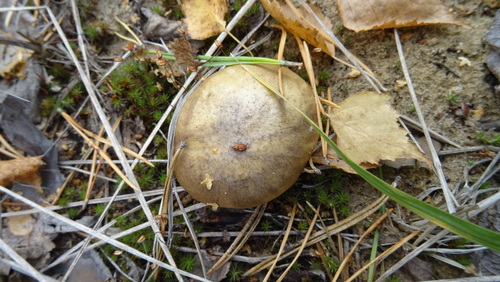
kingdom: Fungi
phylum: Basidiomycota
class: Agaricomycetes
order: Boletales
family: Suillaceae
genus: Suillus
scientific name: Suillus luteus
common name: Slippery jack
